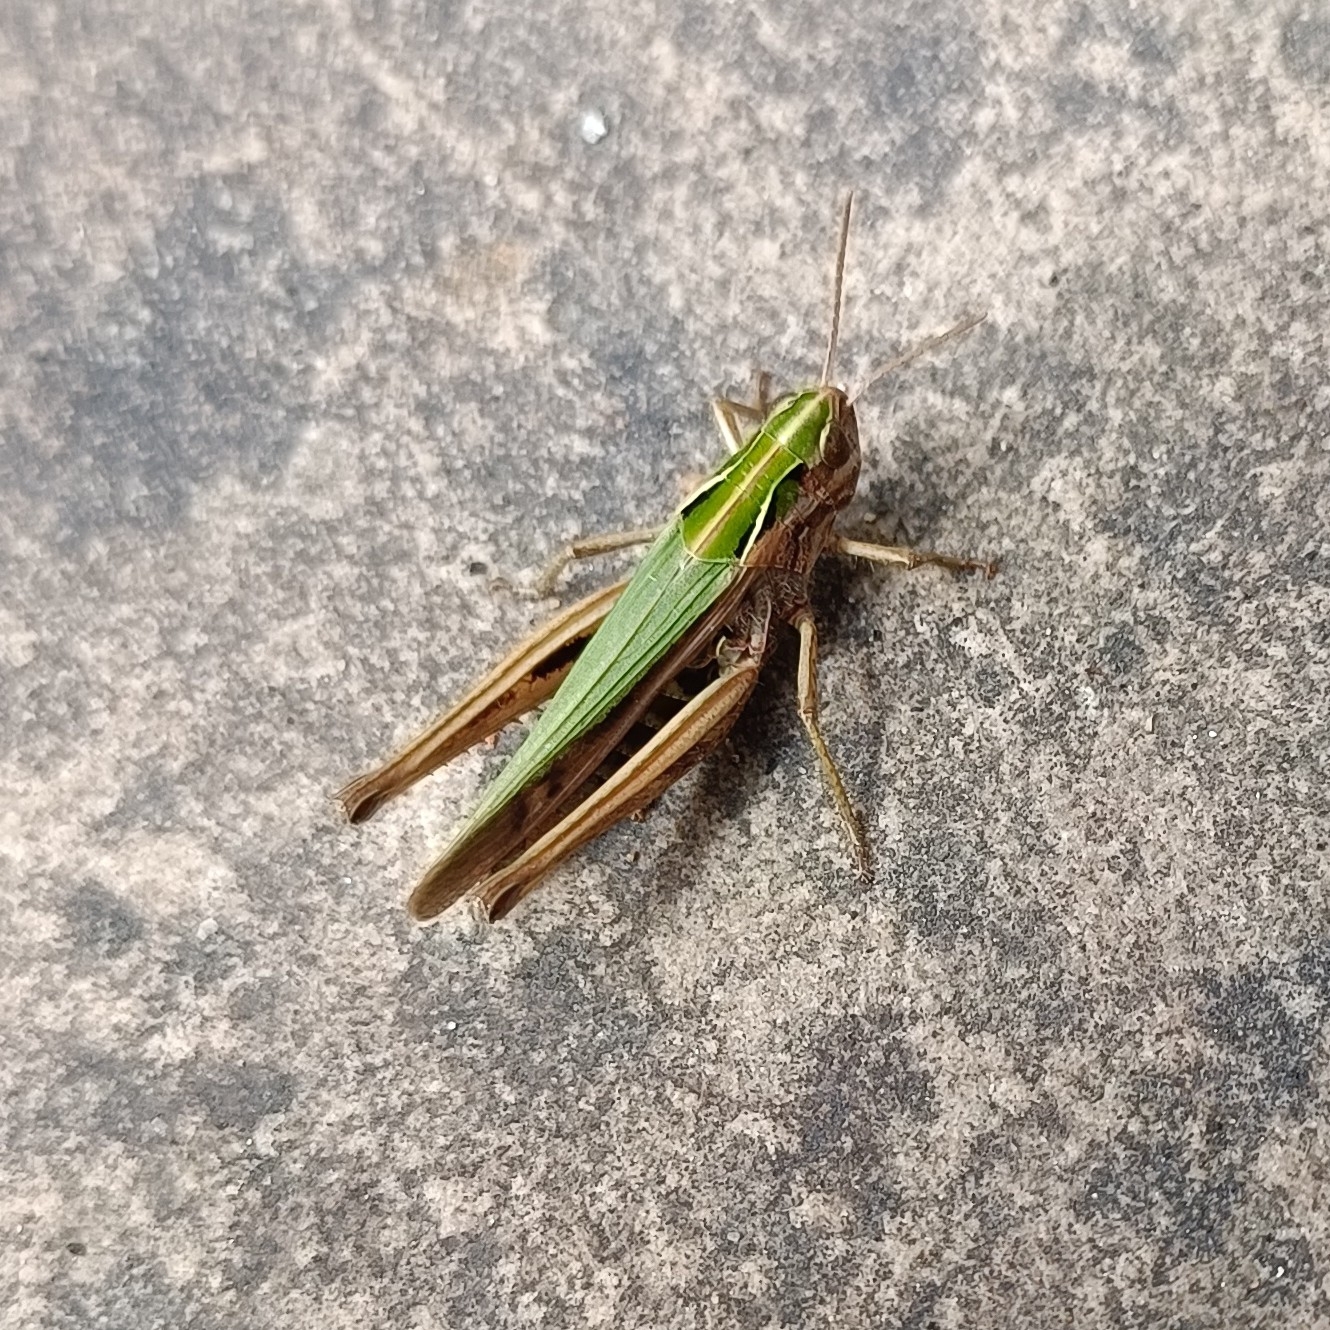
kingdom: Animalia
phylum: Arthropoda
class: Insecta
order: Orthoptera
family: Acrididae
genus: Omocestus
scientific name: Omocestus viridulus
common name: Common green grasshopper
